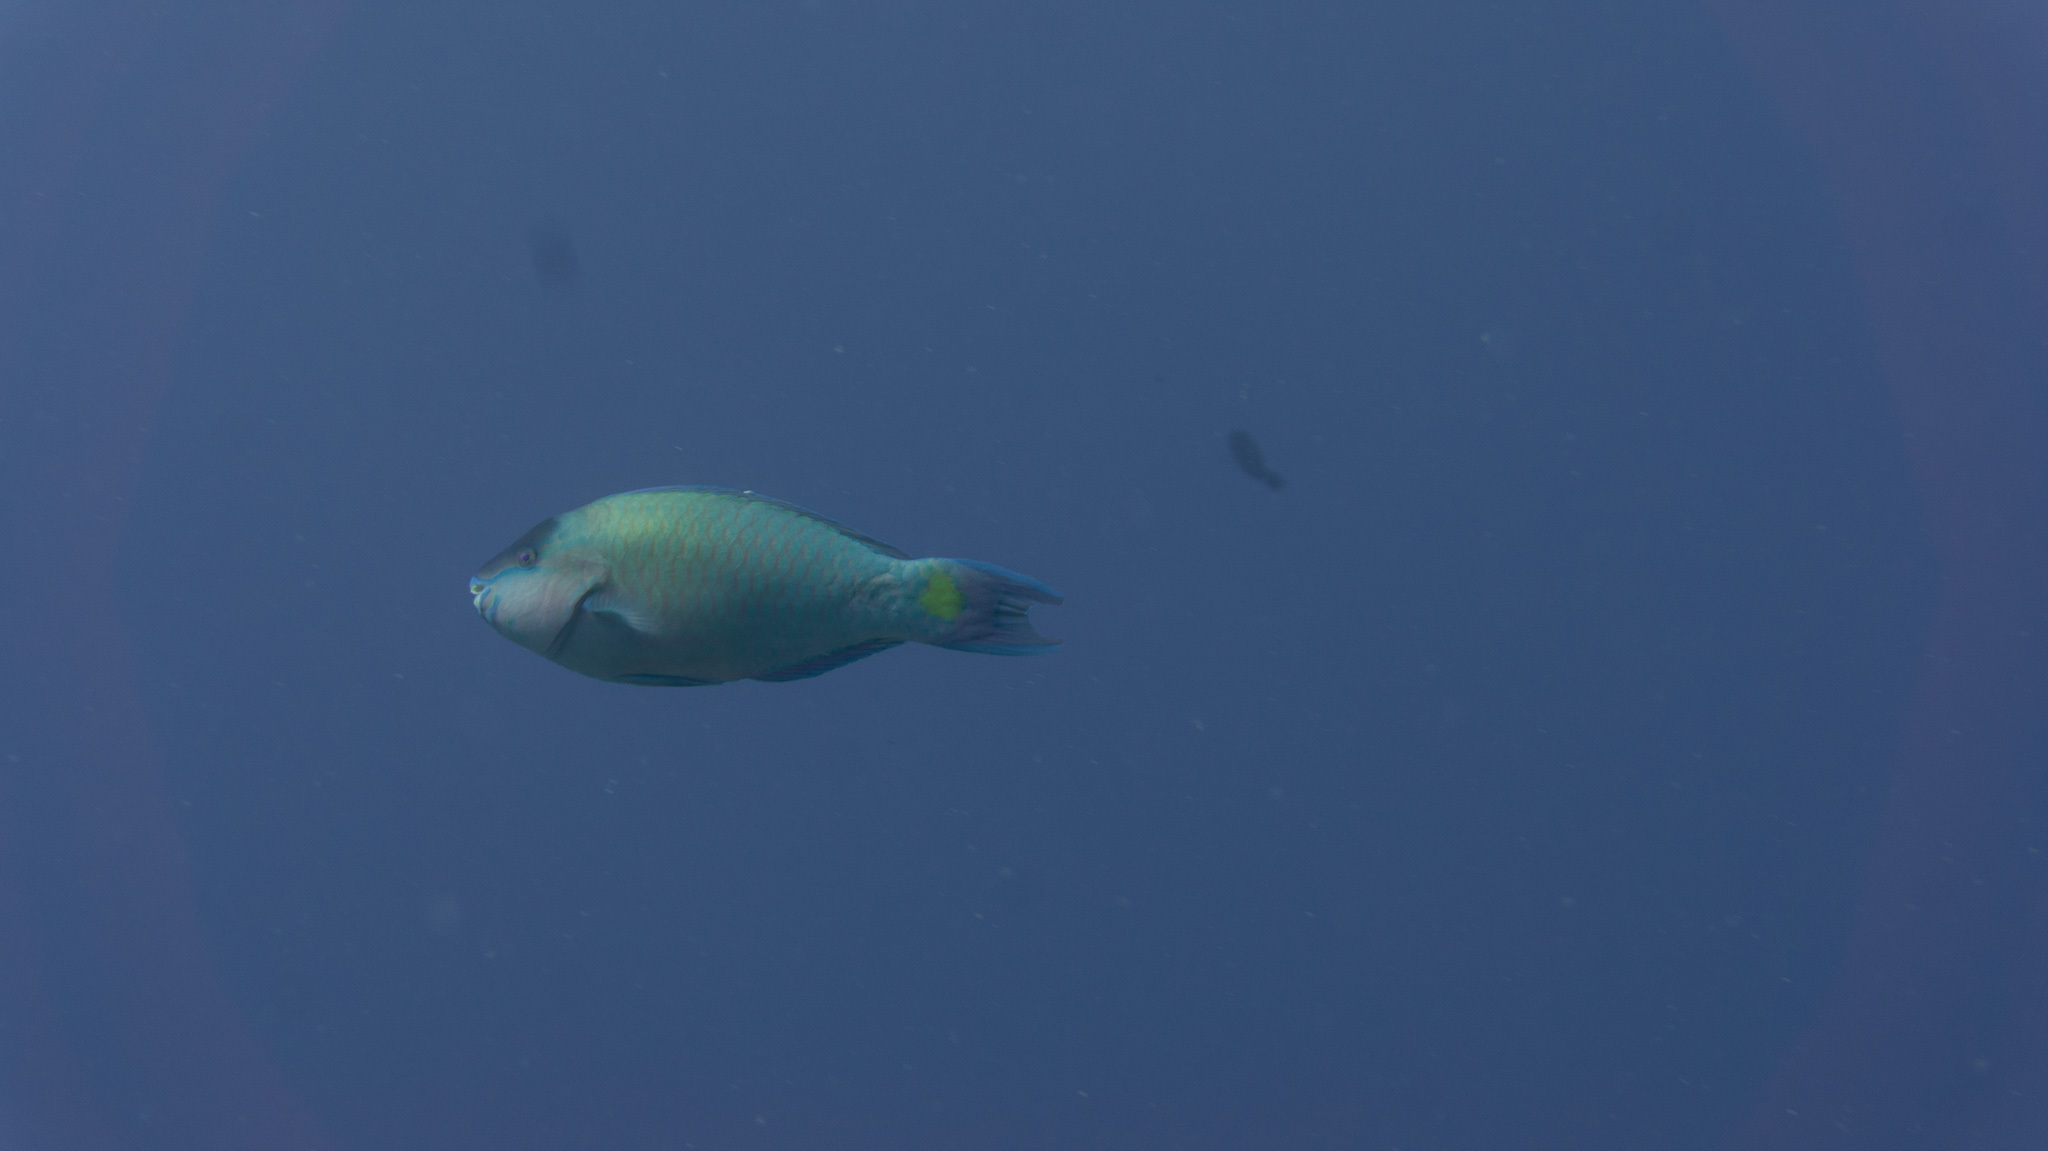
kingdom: Animalia
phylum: Chordata
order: Perciformes
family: Scaridae
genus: Scarus
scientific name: Scarus psittacus
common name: Palenose parrotfish
